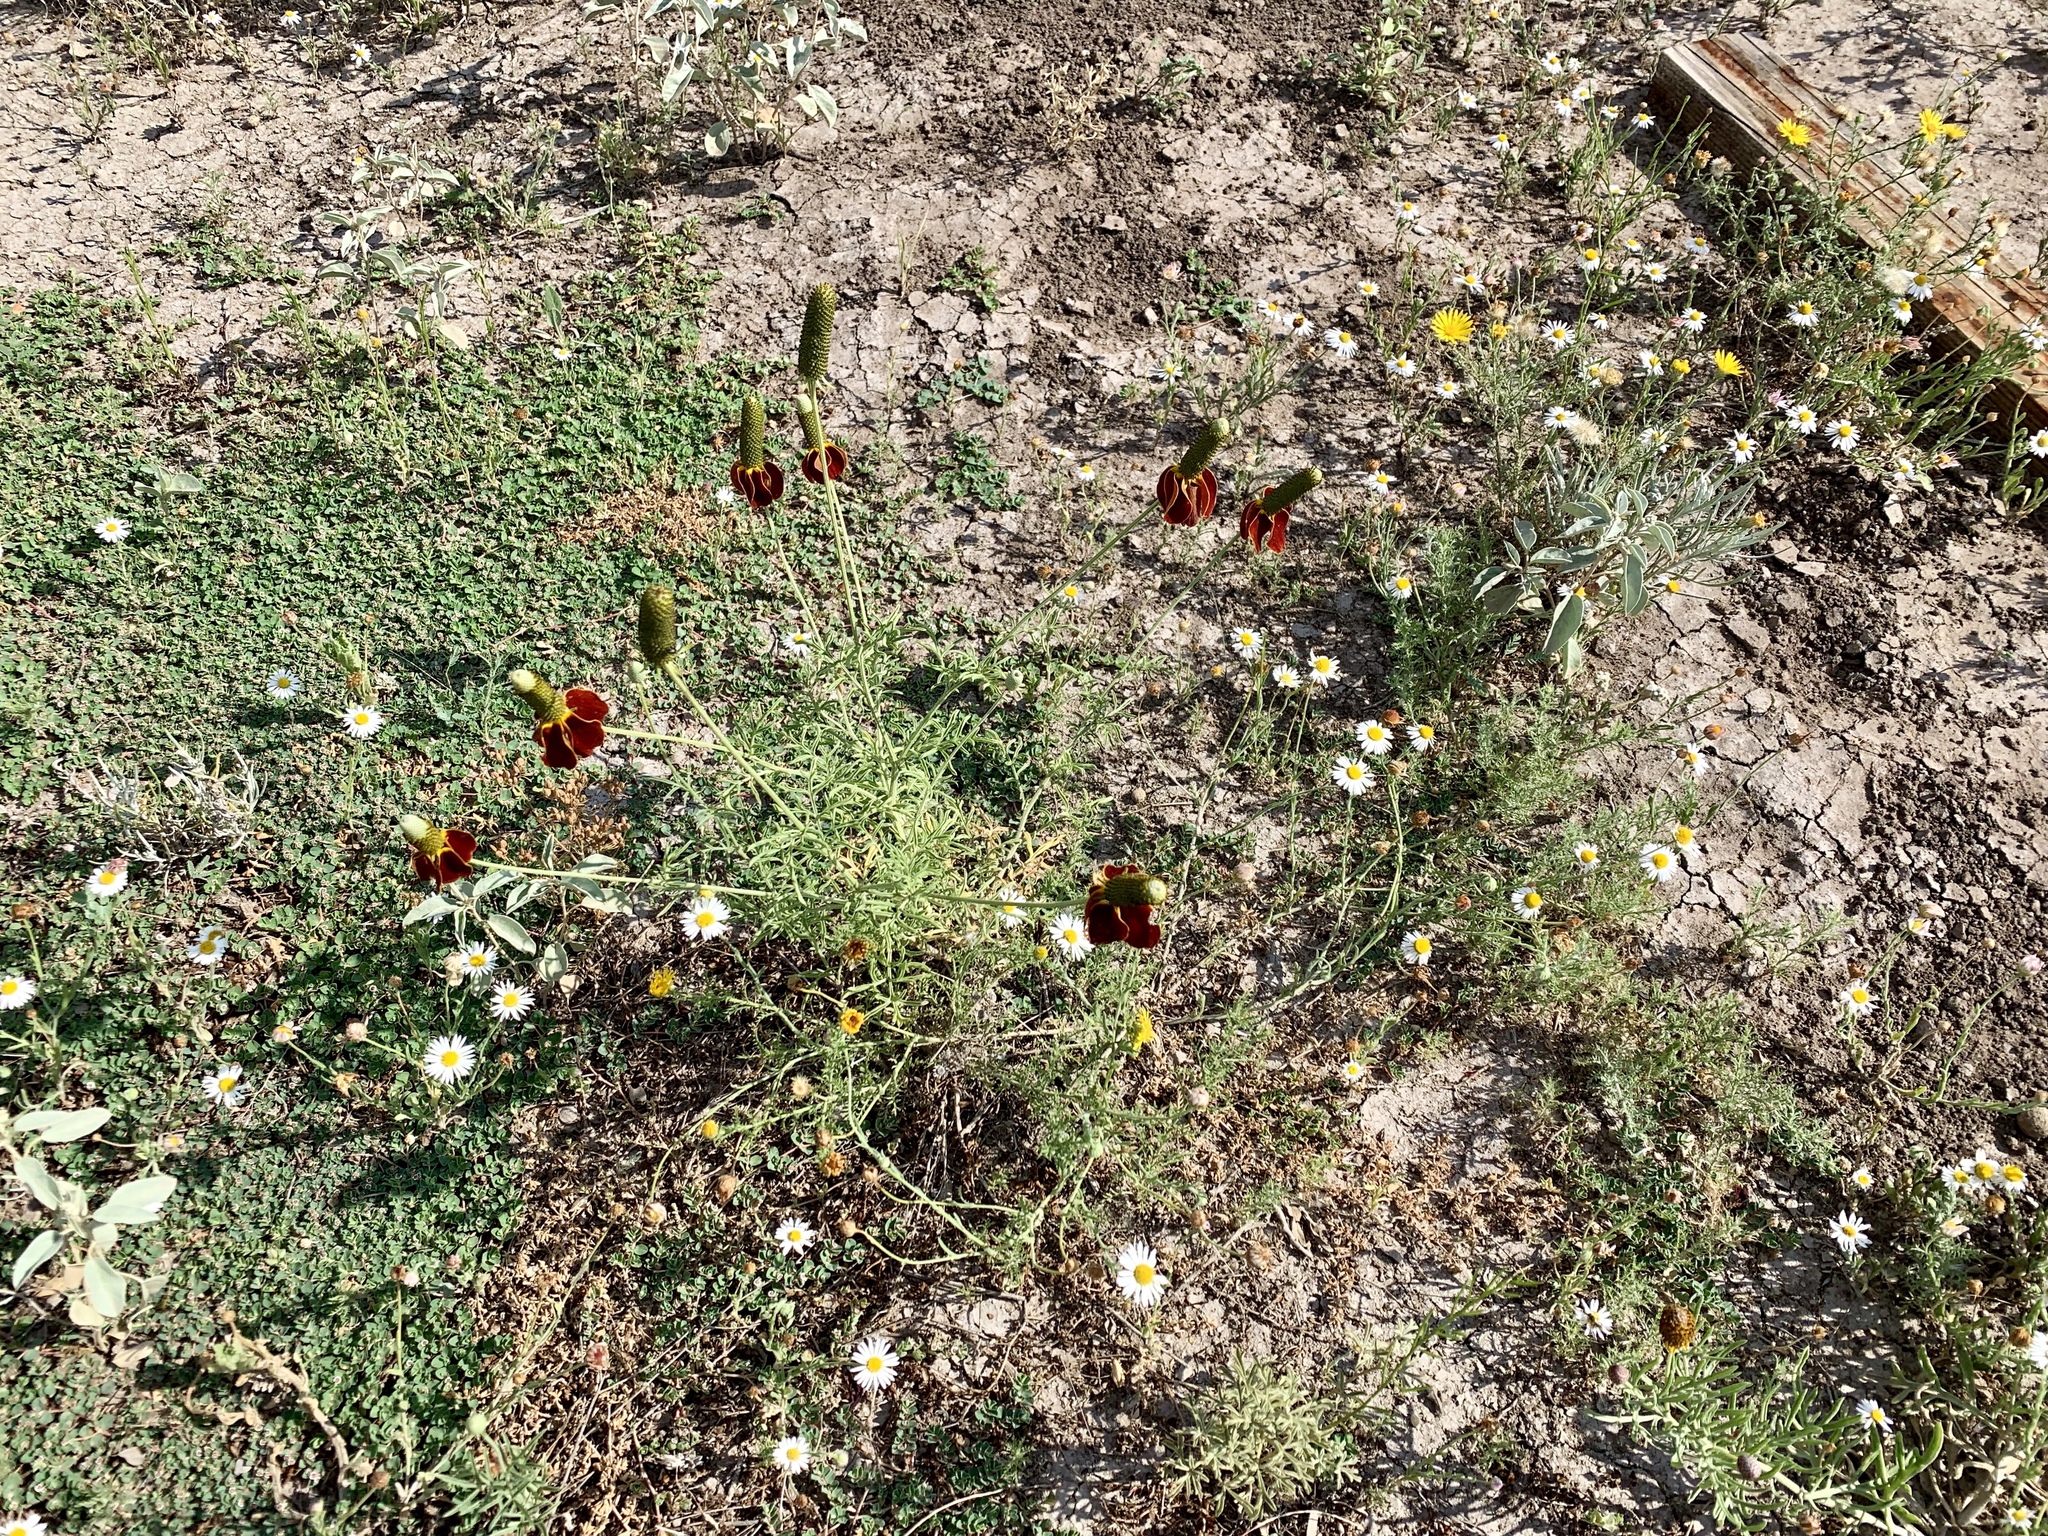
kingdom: Plantae
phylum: Tracheophyta
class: Magnoliopsida
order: Asterales
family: Asteraceae
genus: Ratibida
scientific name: Ratibida columnifera
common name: Prairie coneflower
